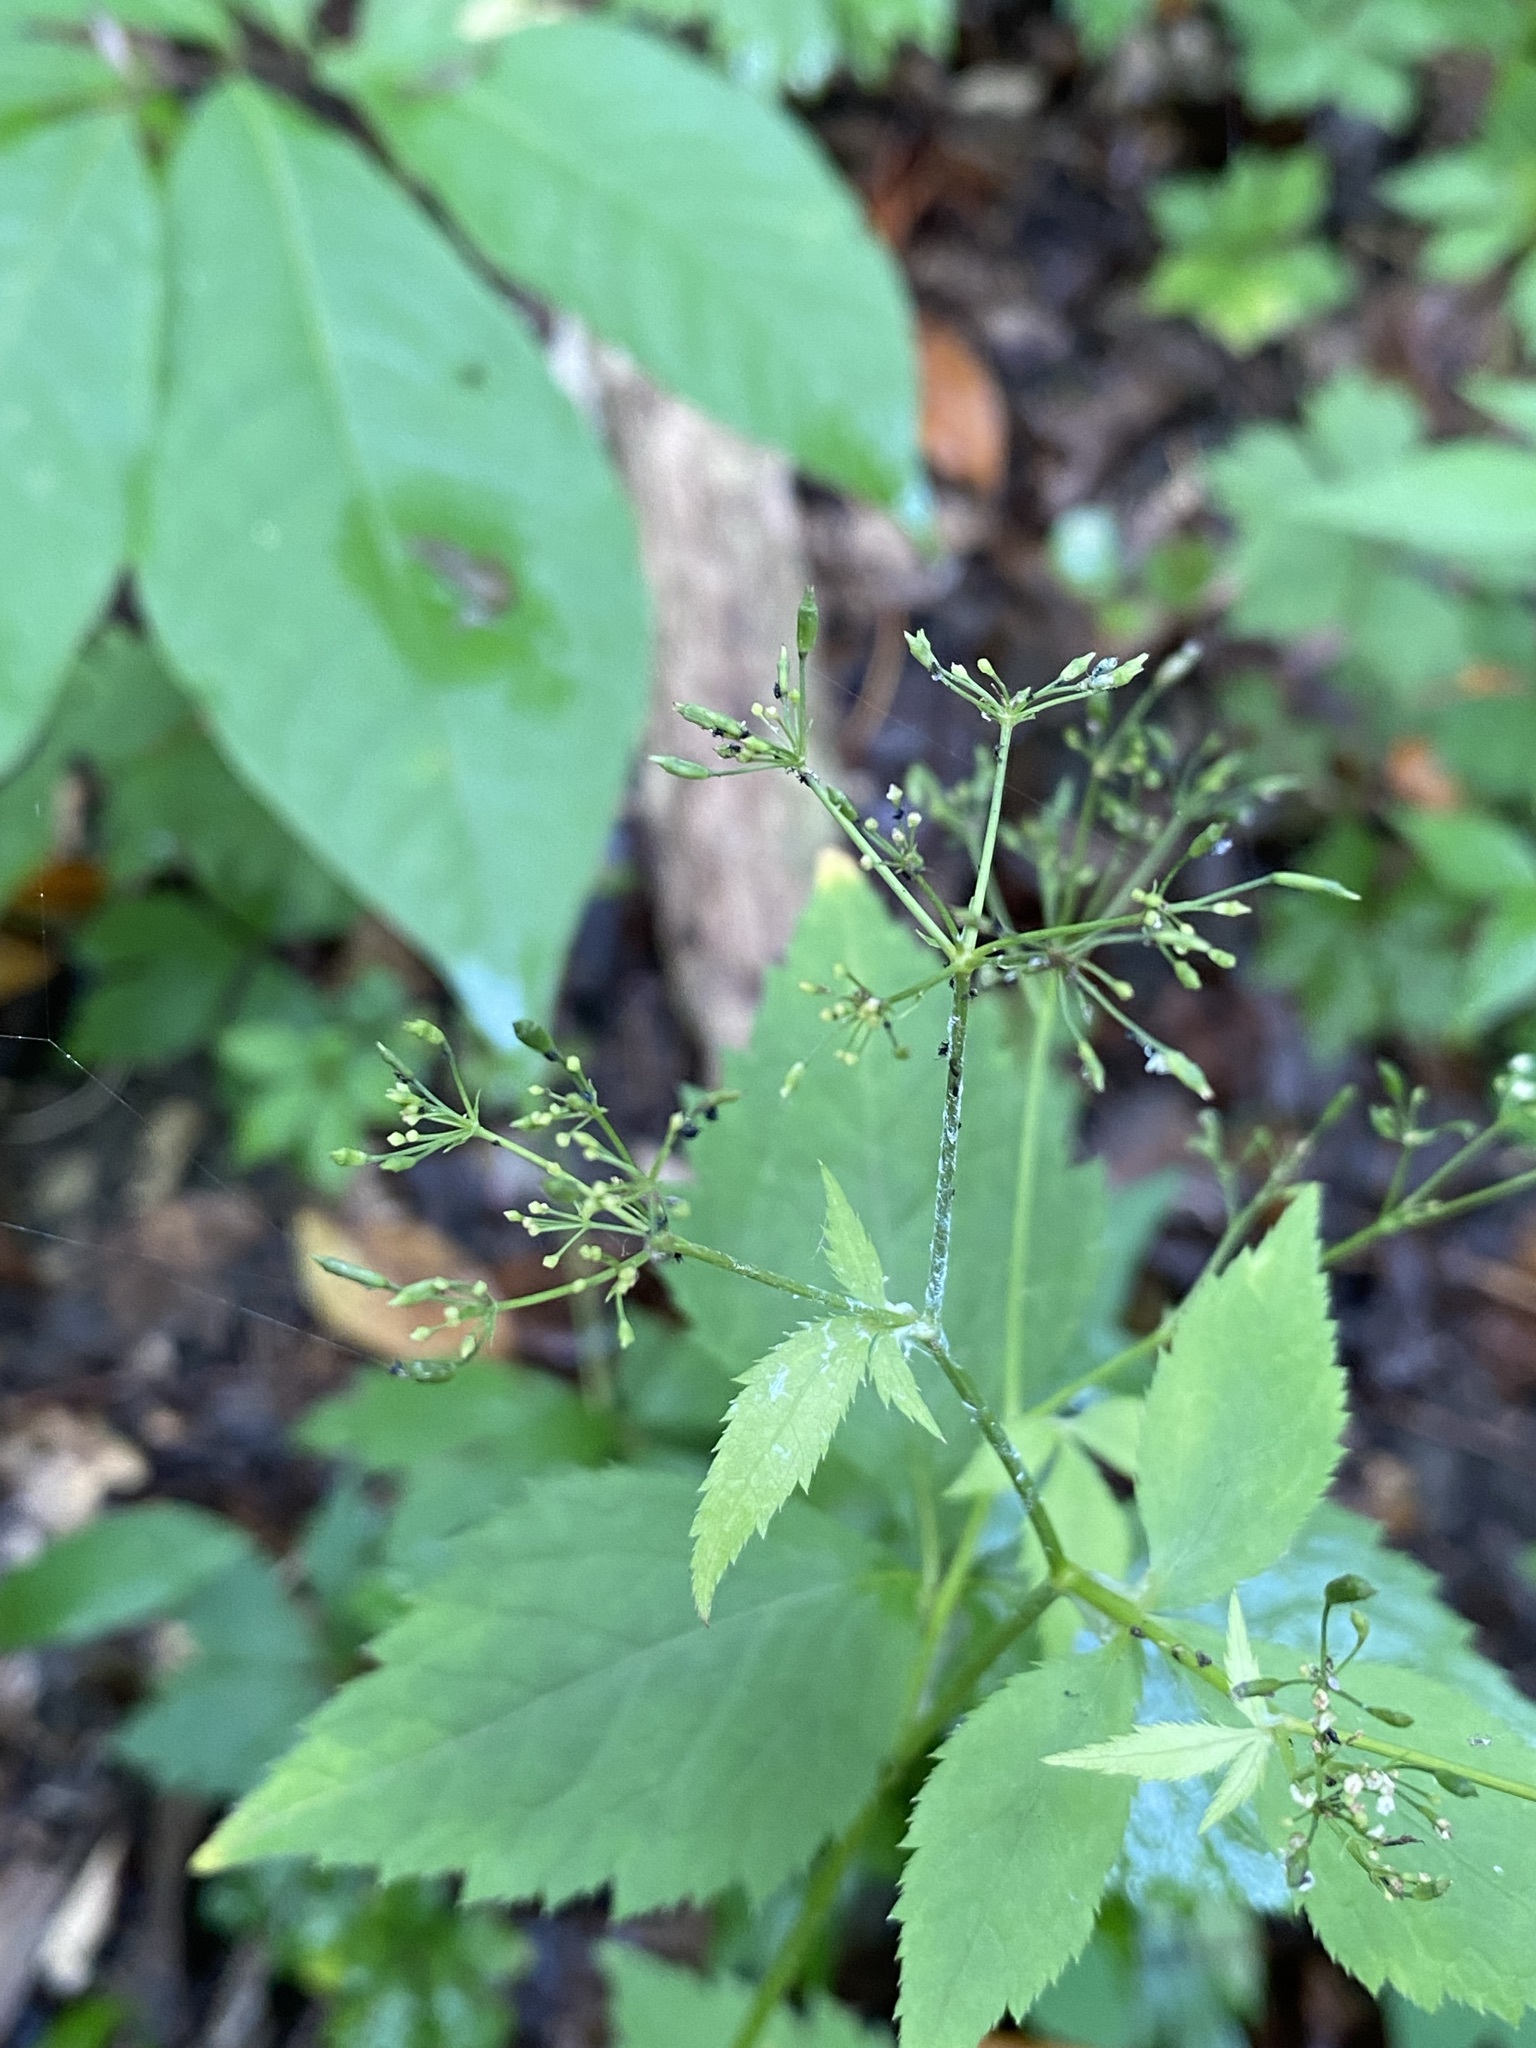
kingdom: Plantae
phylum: Tracheophyta
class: Magnoliopsida
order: Apiales
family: Apiaceae
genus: Cryptotaenia
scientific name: Cryptotaenia canadensis
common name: Honewort
